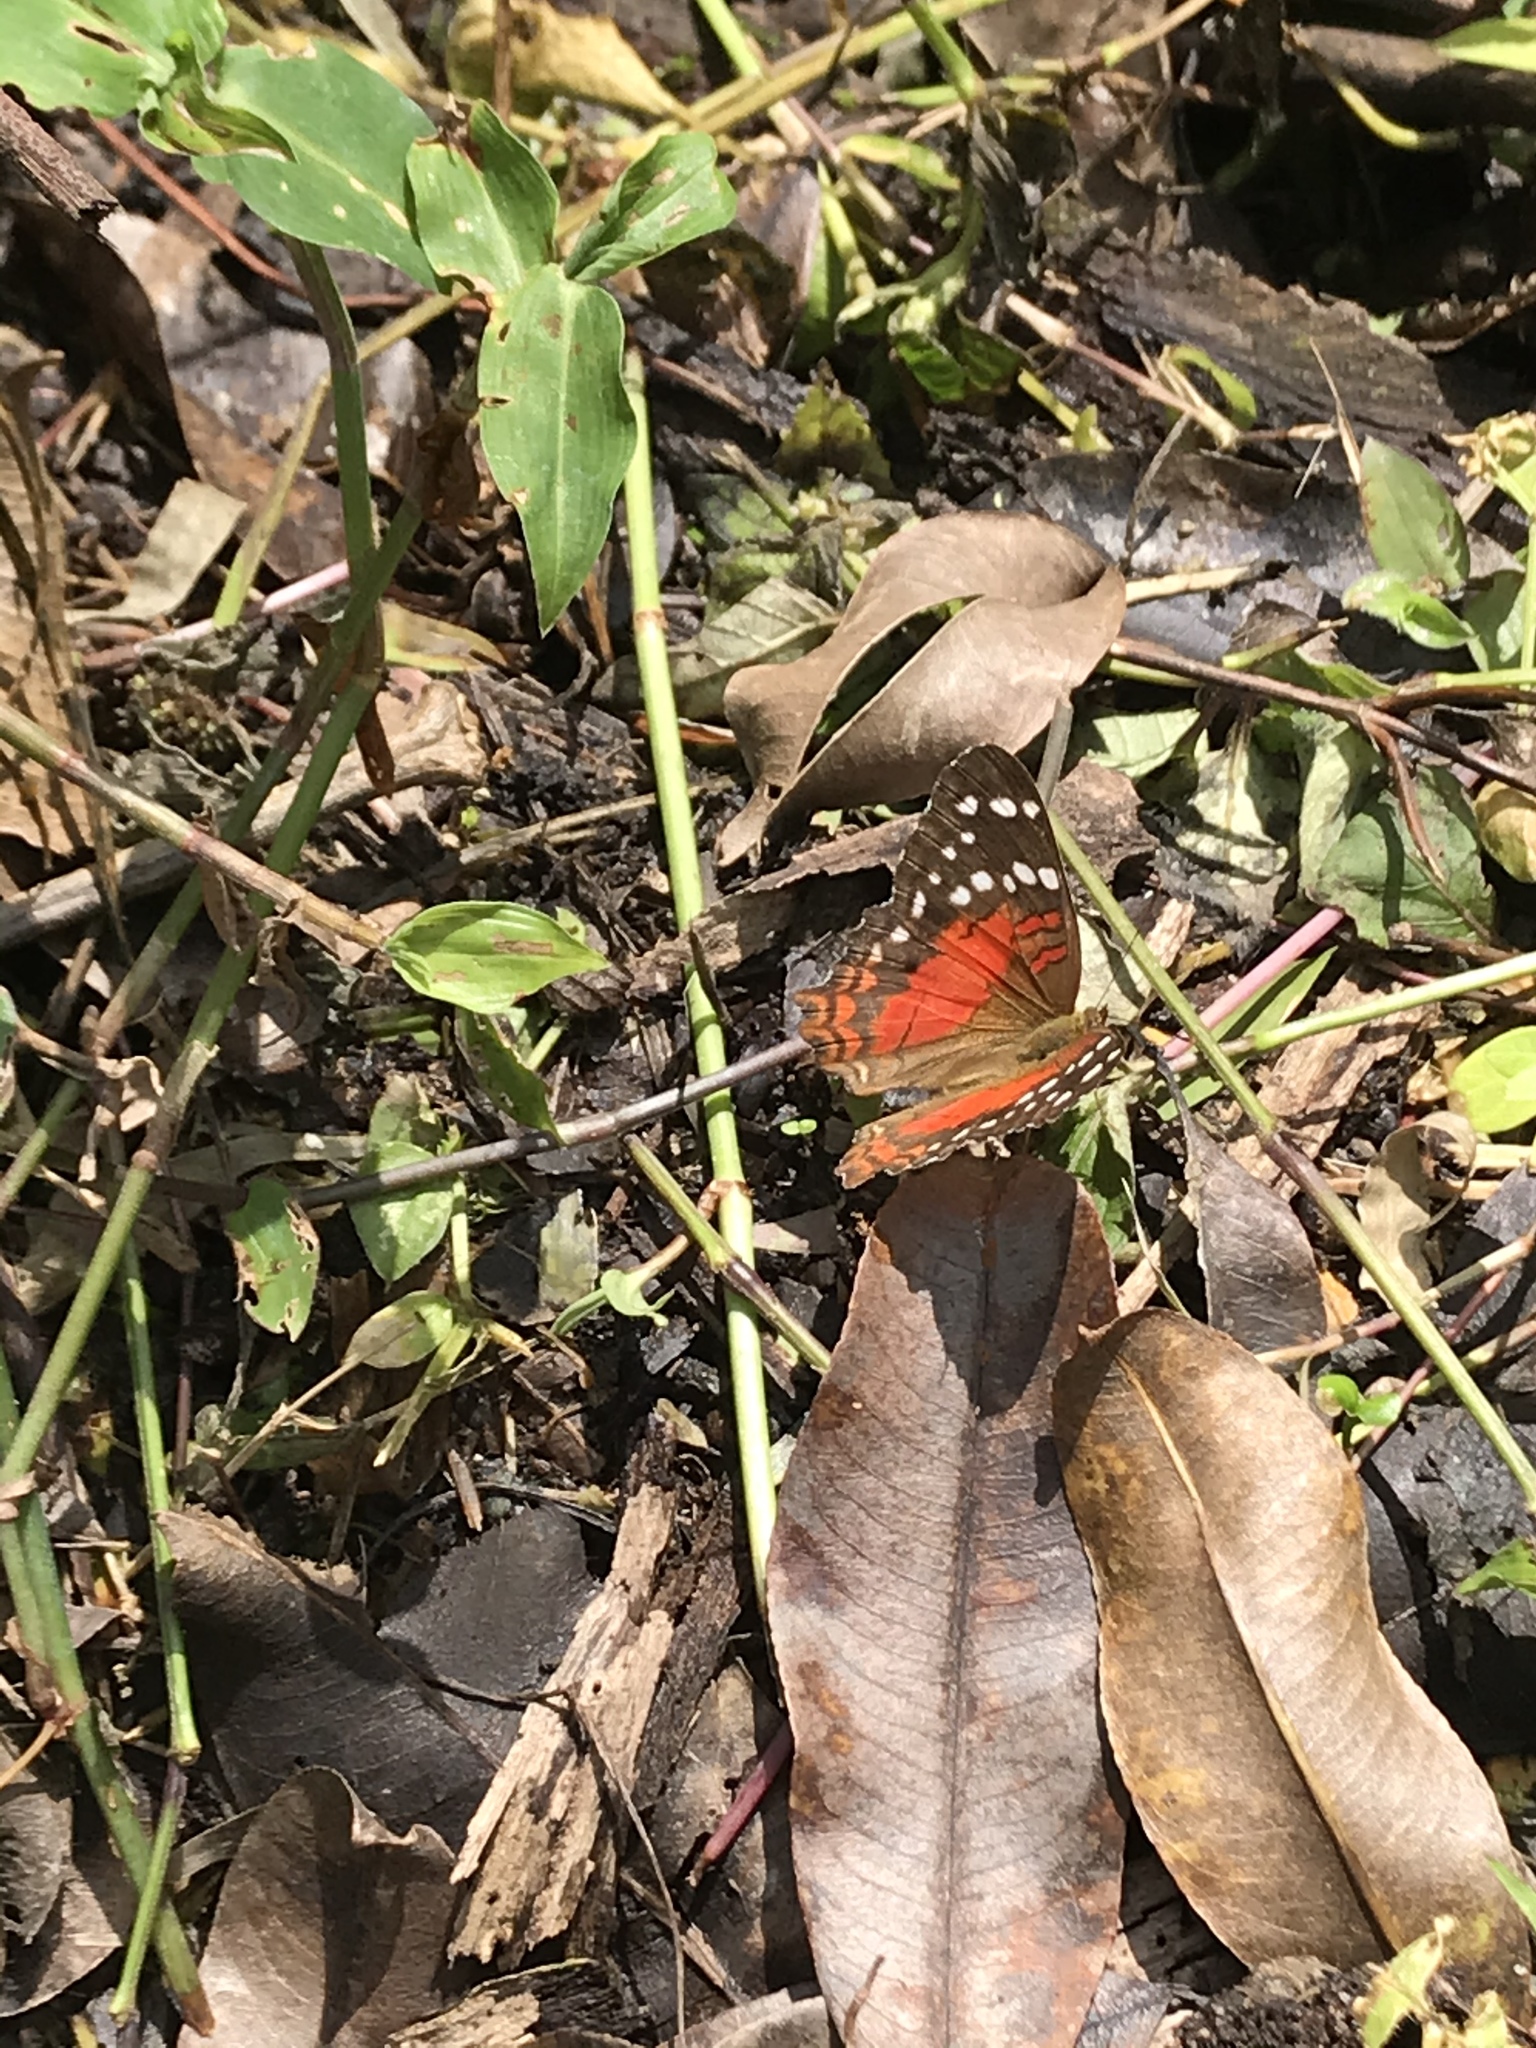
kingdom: Animalia
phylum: Arthropoda
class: Insecta
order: Lepidoptera
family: Nymphalidae
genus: Anartia
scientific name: Anartia amathea
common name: Red peacock
